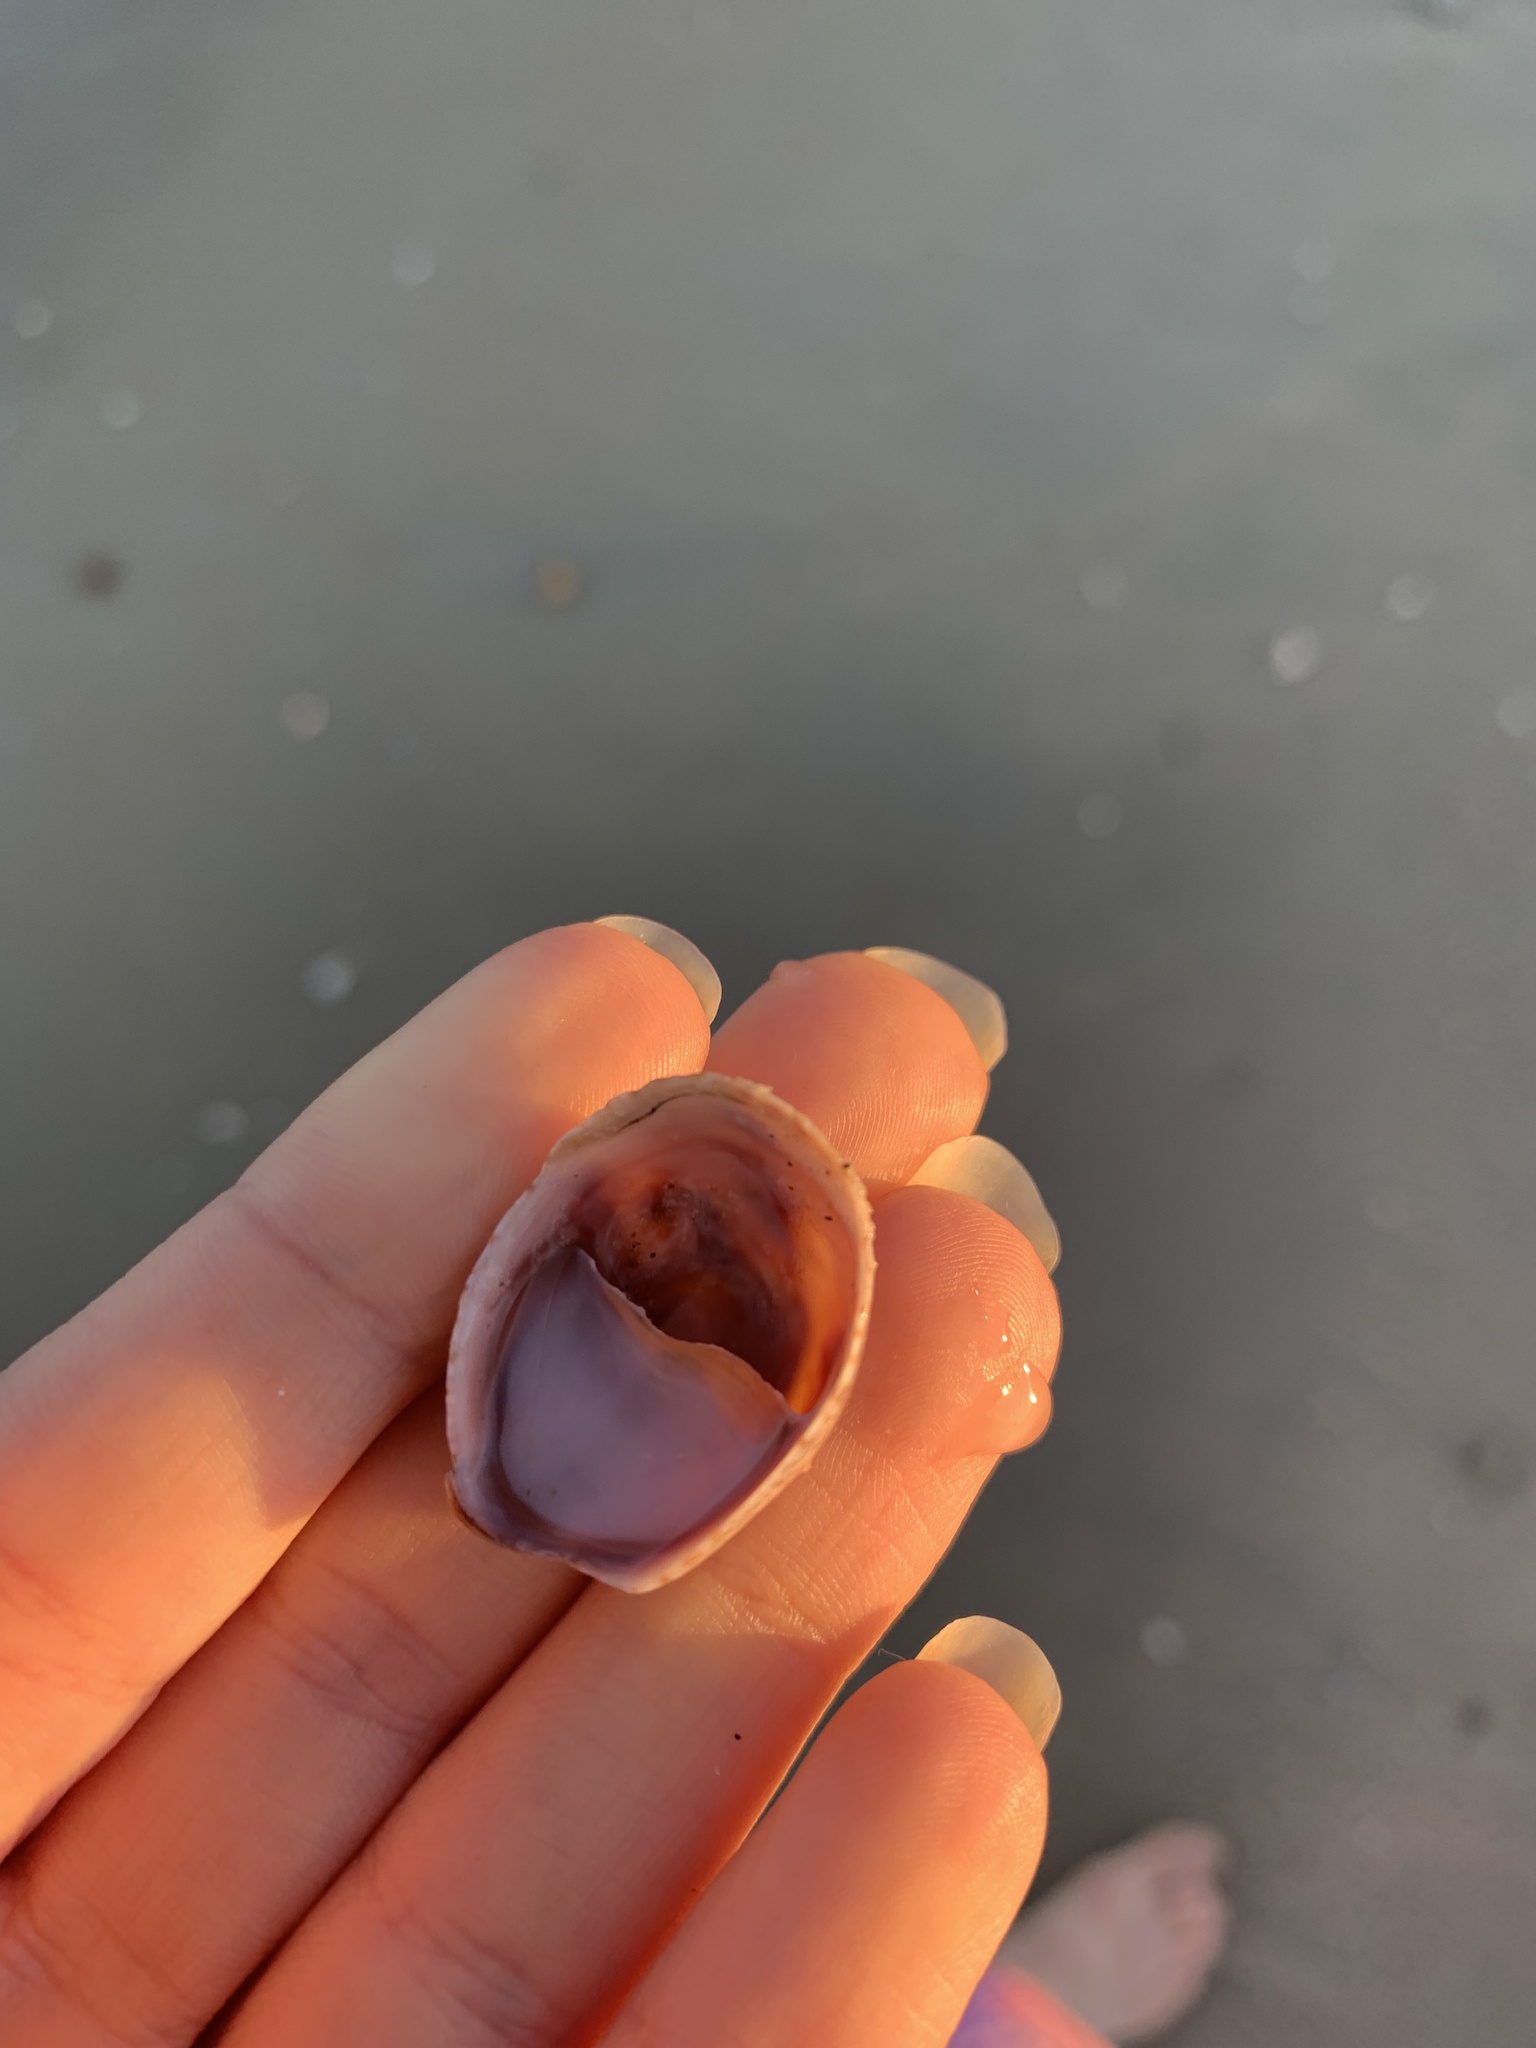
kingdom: Animalia
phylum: Mollusca
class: Gastropoda
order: Littorinimorpha
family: Calyptraeidae
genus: Crepidula
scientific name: Crepidula fornicata
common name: Slipper limpet
